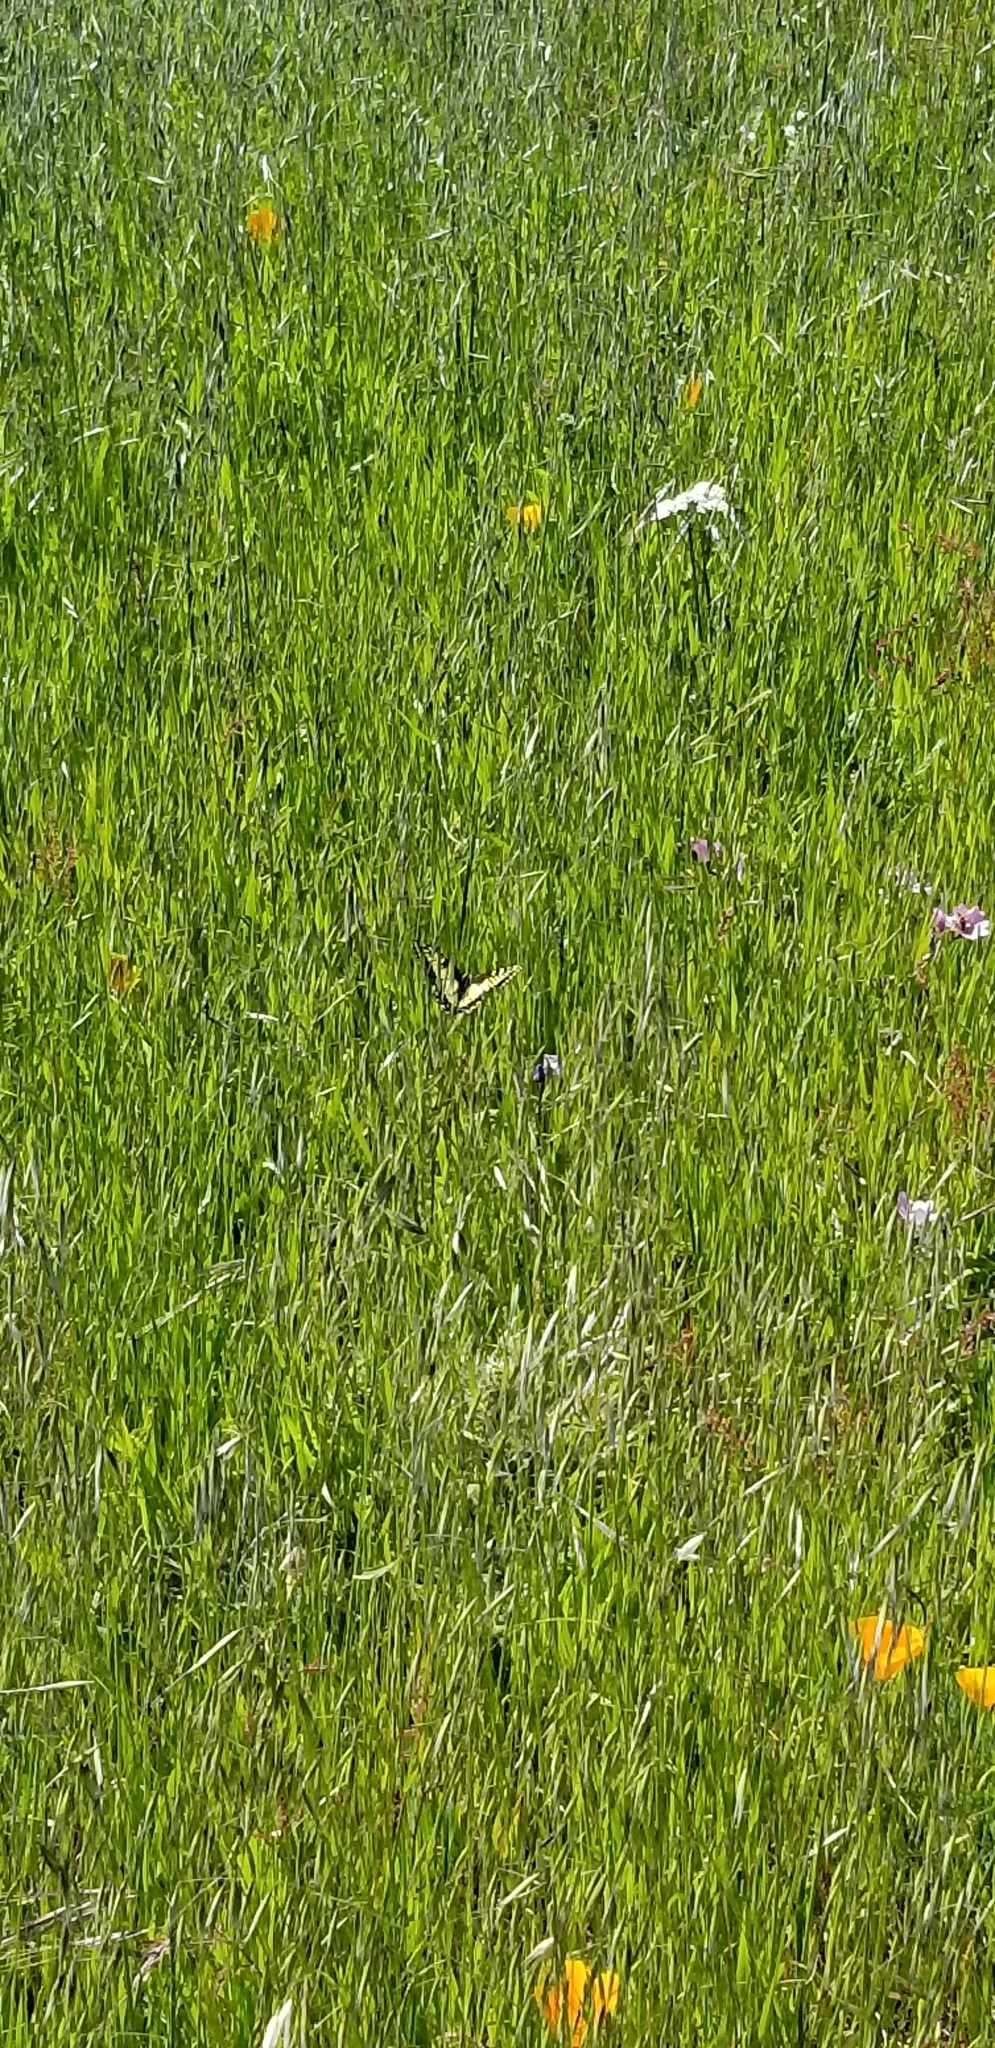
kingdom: Animalia
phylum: Arthropoda
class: Insecta
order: Lepidoptera
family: Papilionidae
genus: Papilio
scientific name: Papilio zelicaon
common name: Anise swallowtail
